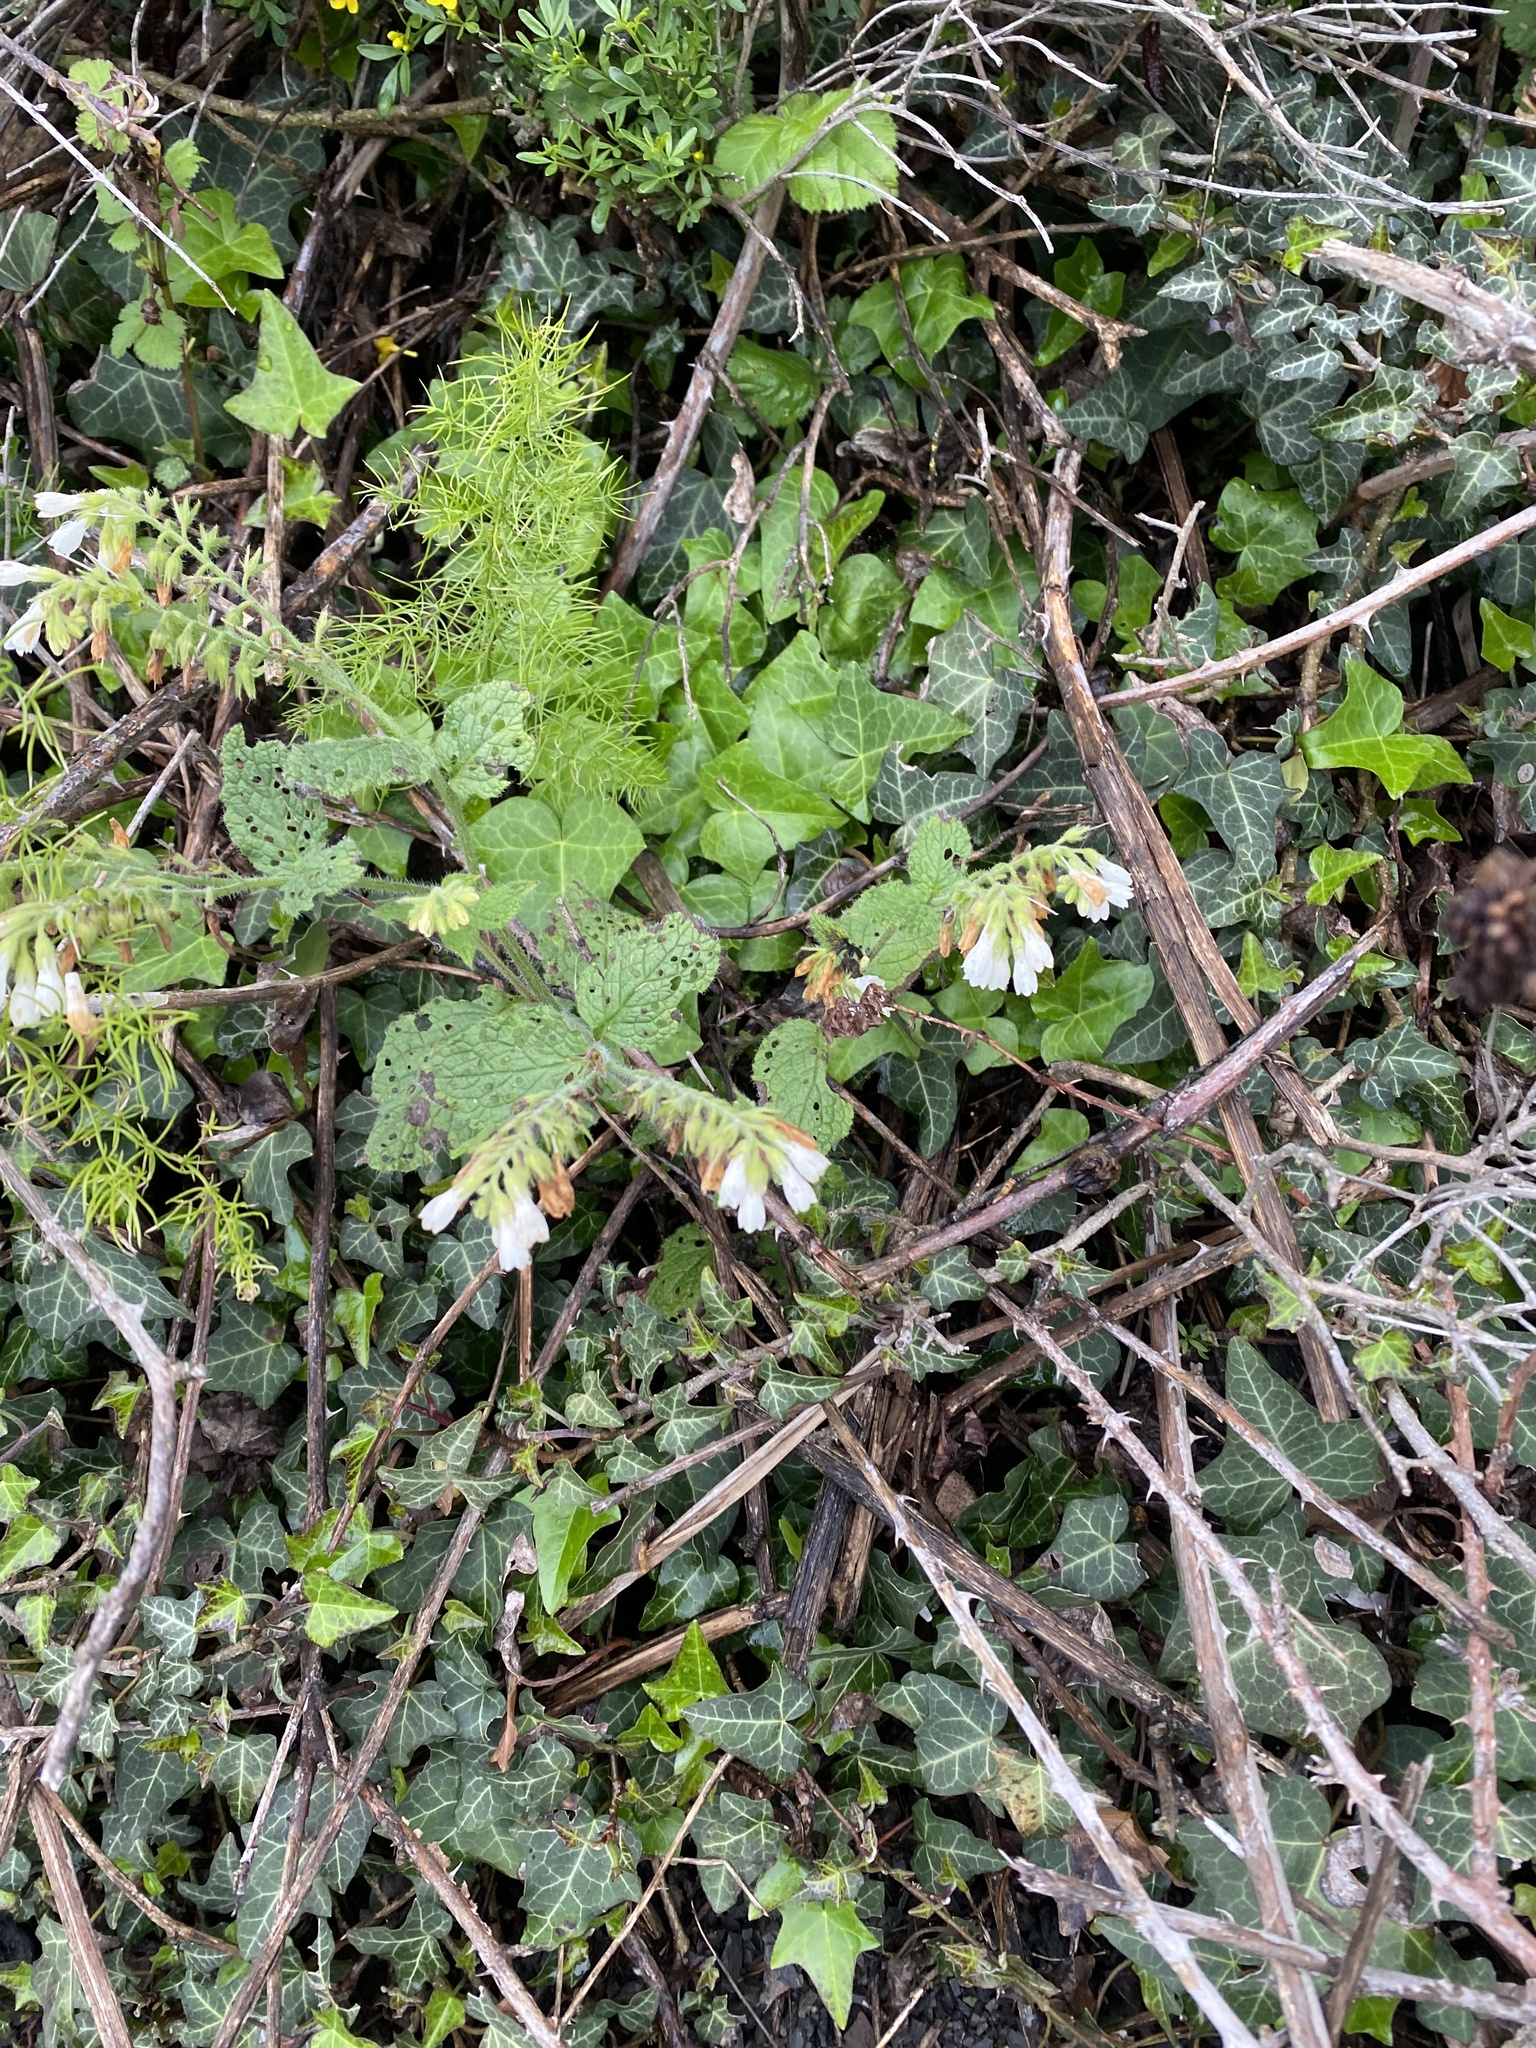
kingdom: Plantae
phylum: Tracheophyta
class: Magnoliopsida
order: Boraginales
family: Boraginaceae
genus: Symphytum
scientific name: Symphytum tauricum
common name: Crimean comfrey
